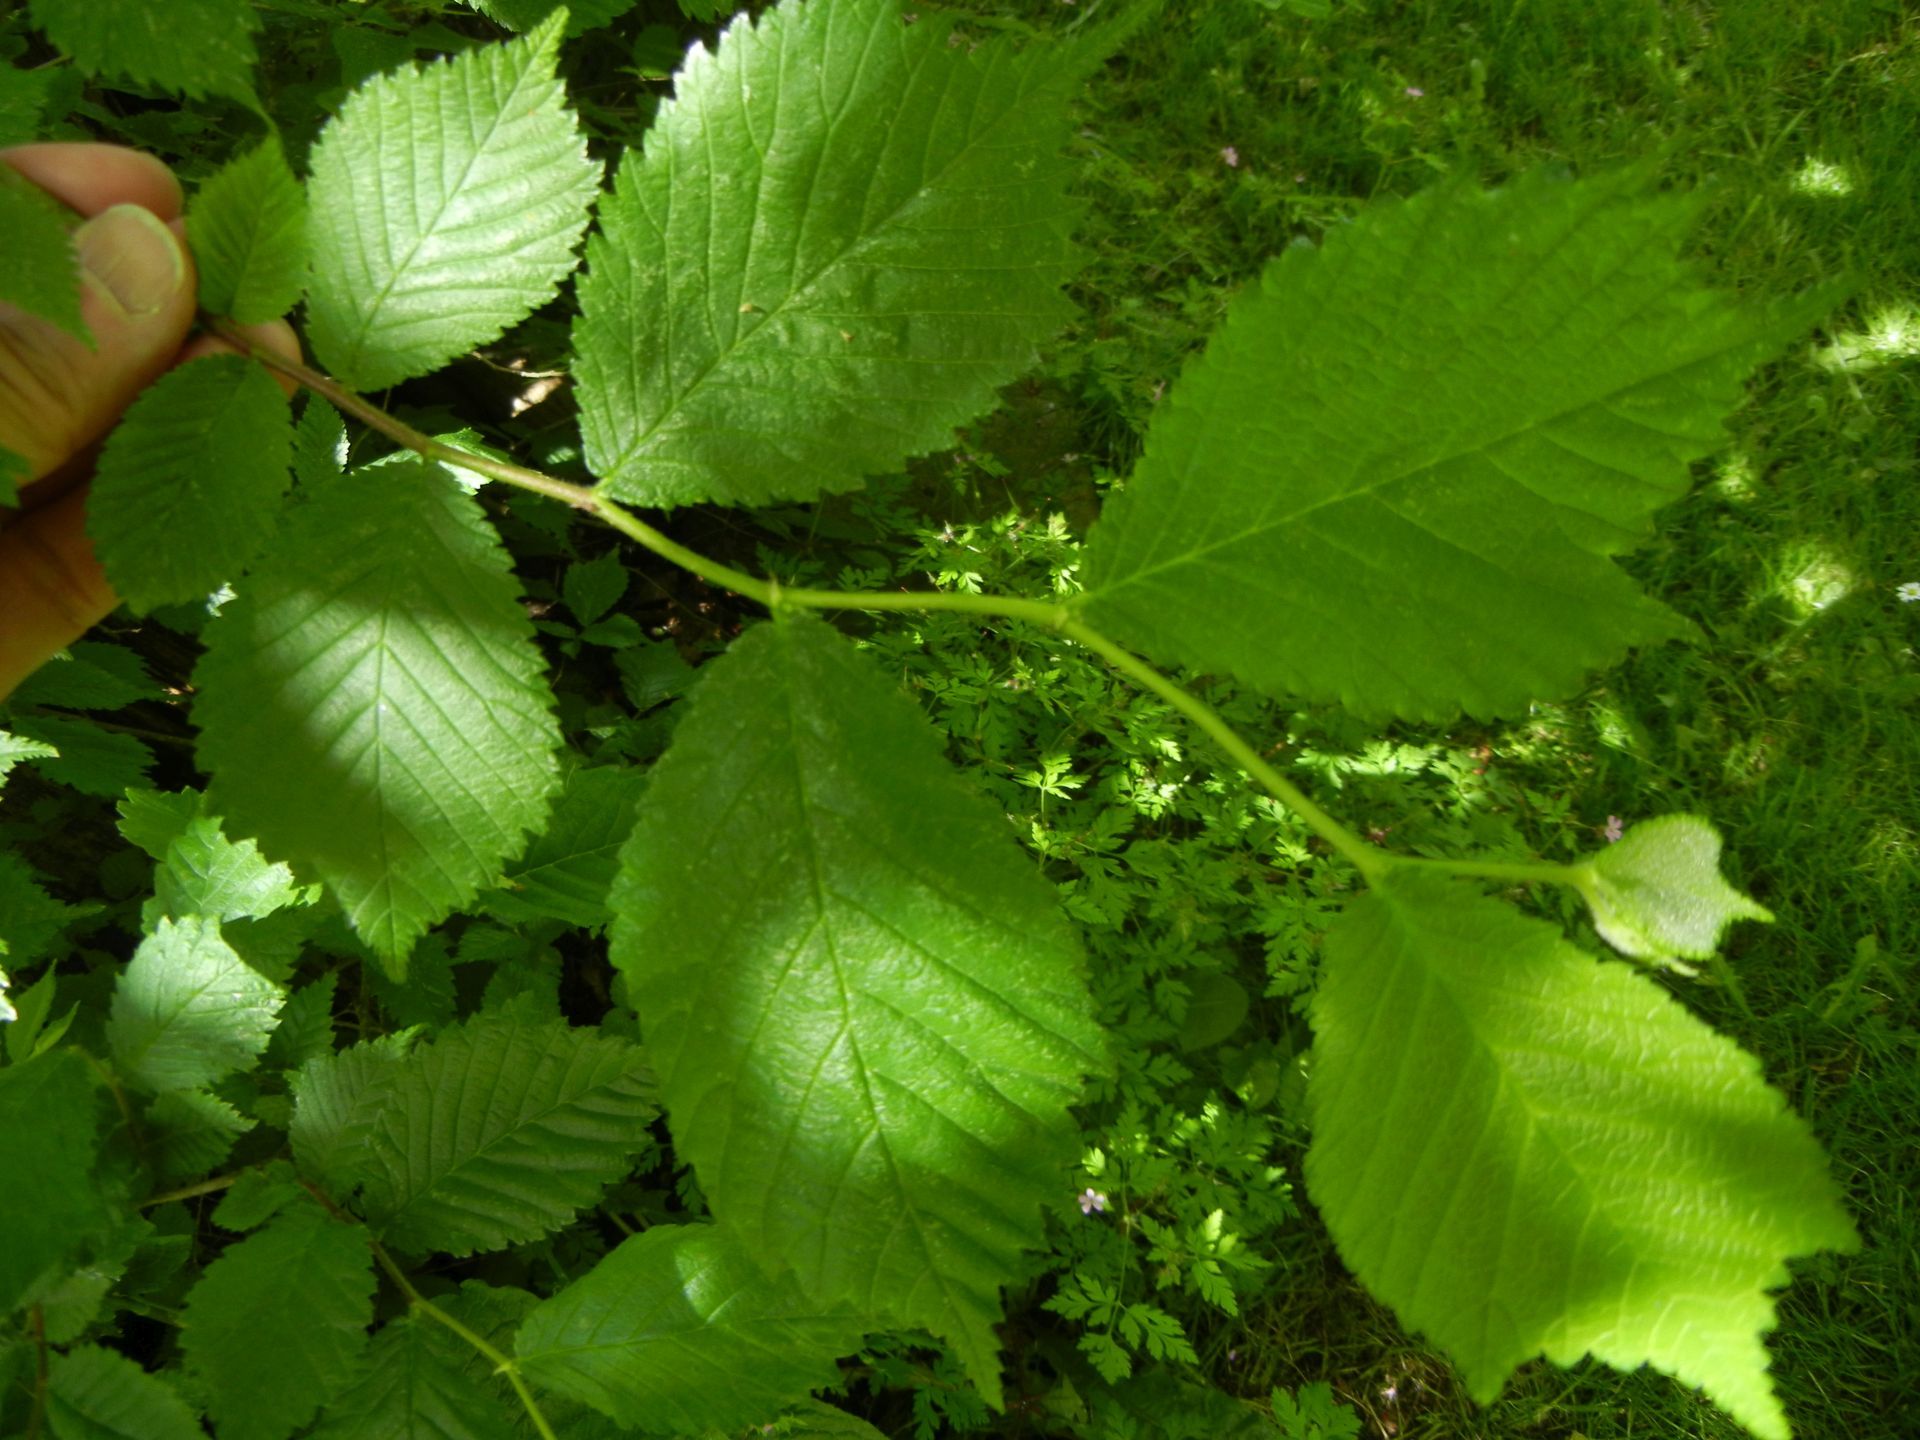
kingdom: Plantae
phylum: Tracheophyta
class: Magnoliopsida
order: Rosales
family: Ulmaceae
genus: Ulmus
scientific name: Ulmus glabra
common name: Wych elm
